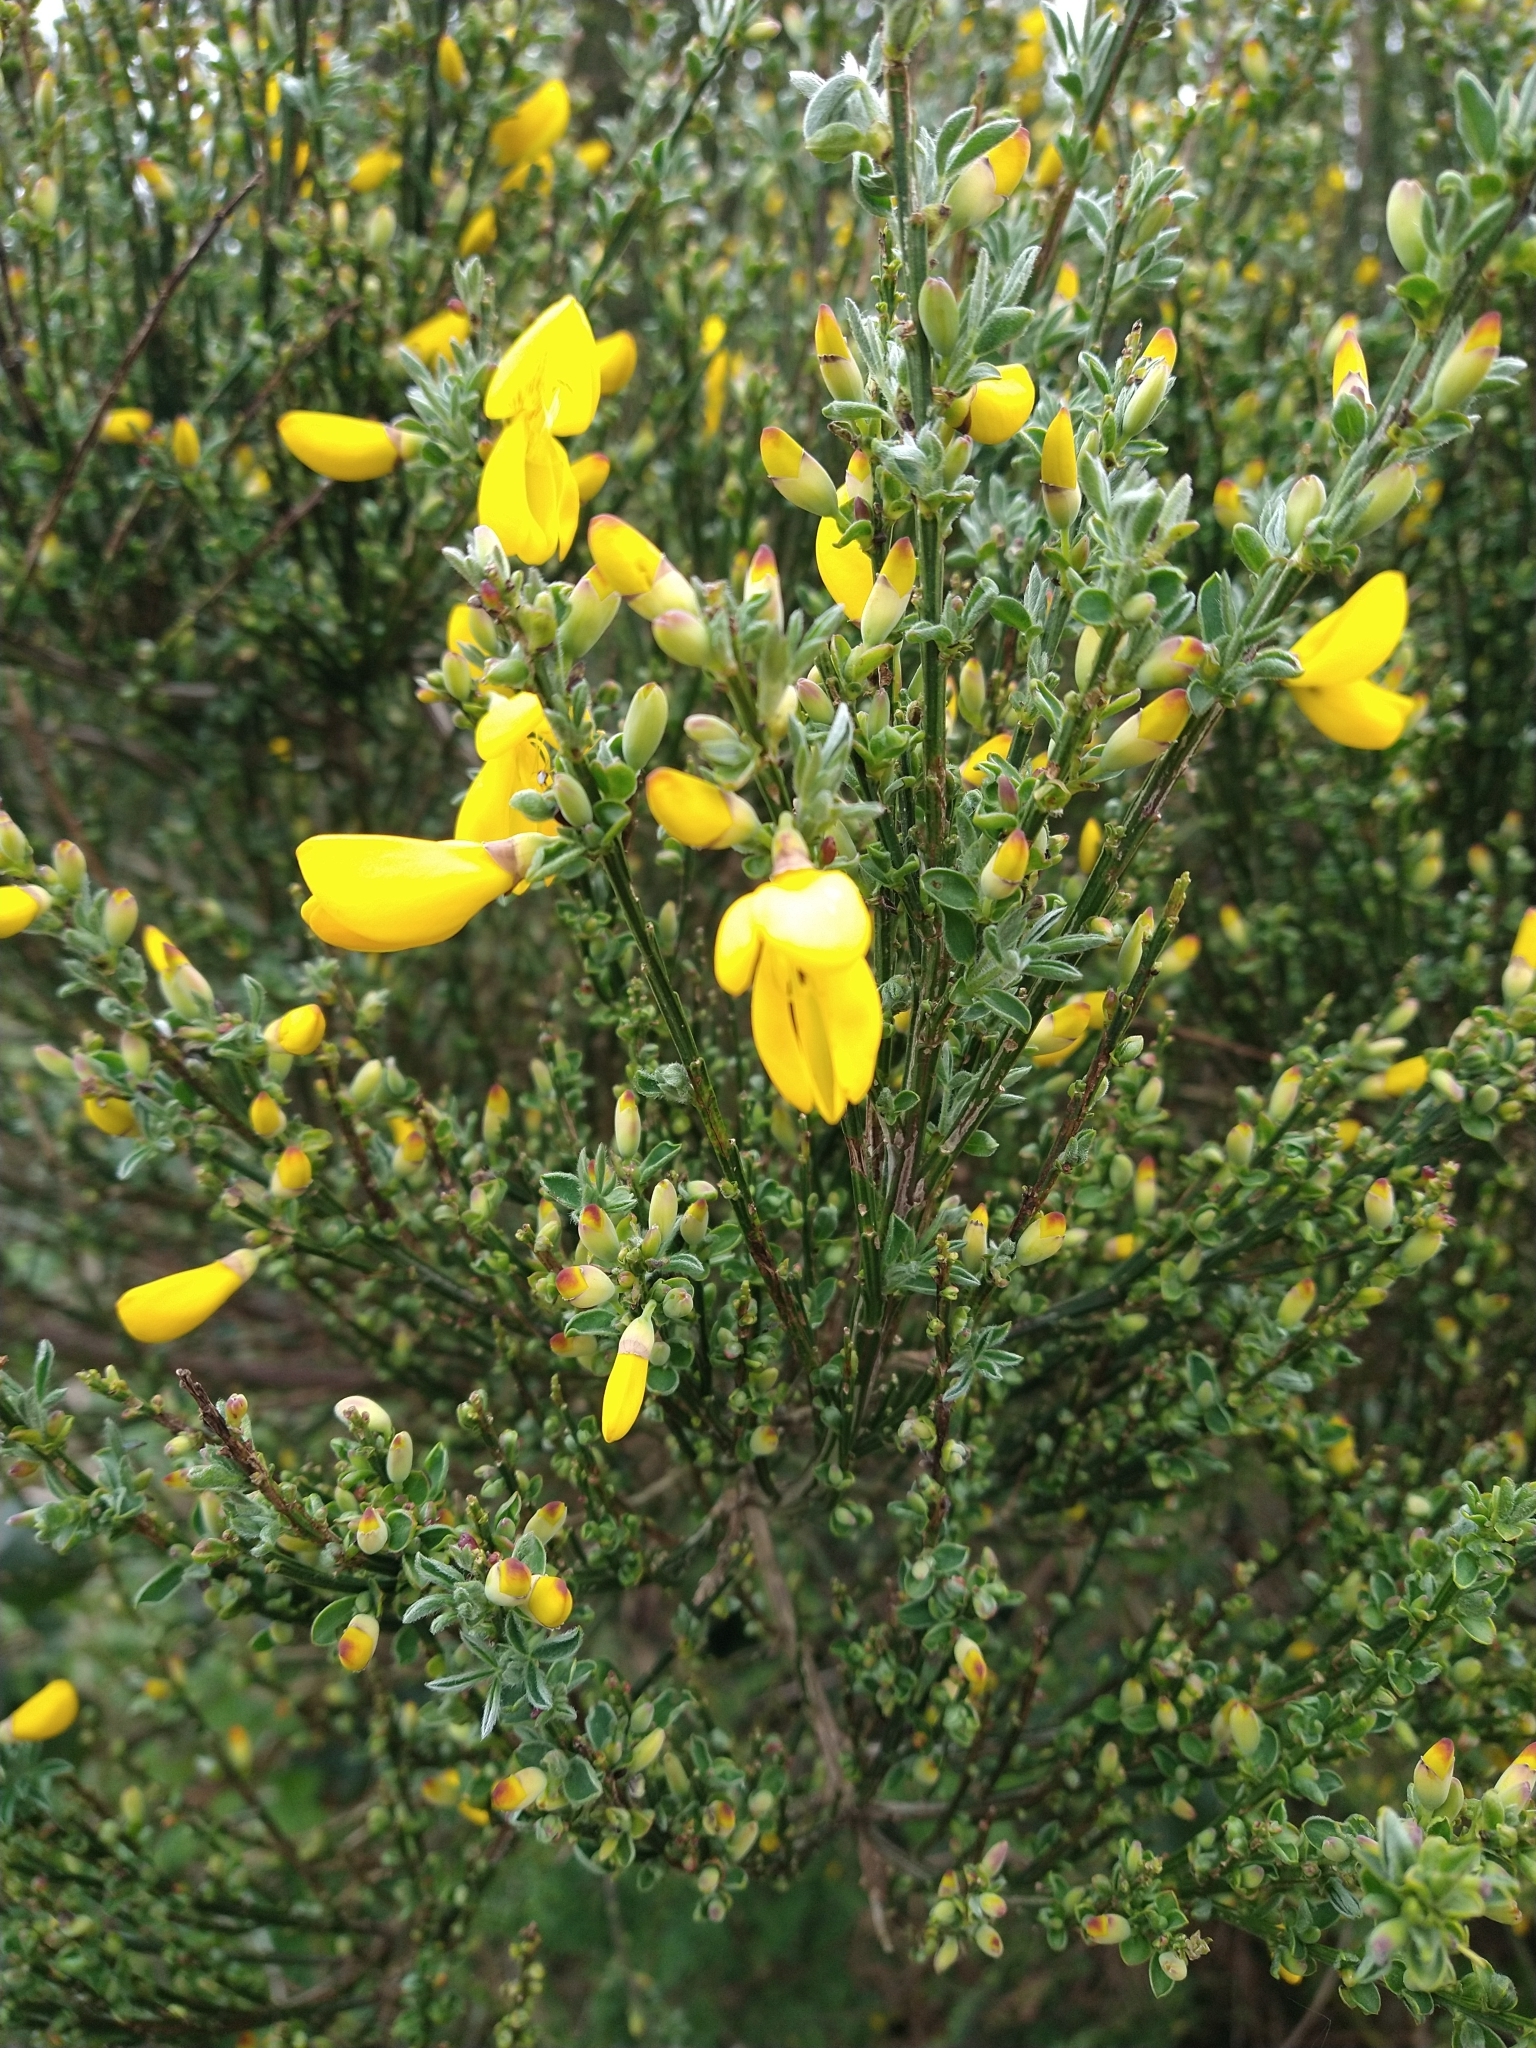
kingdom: Plantae
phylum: Tracheophyta
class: Magnoliopsida
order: Fabales
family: Fabaceae
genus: Cytisus
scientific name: Cytisus scoparius
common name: Scotch broom
